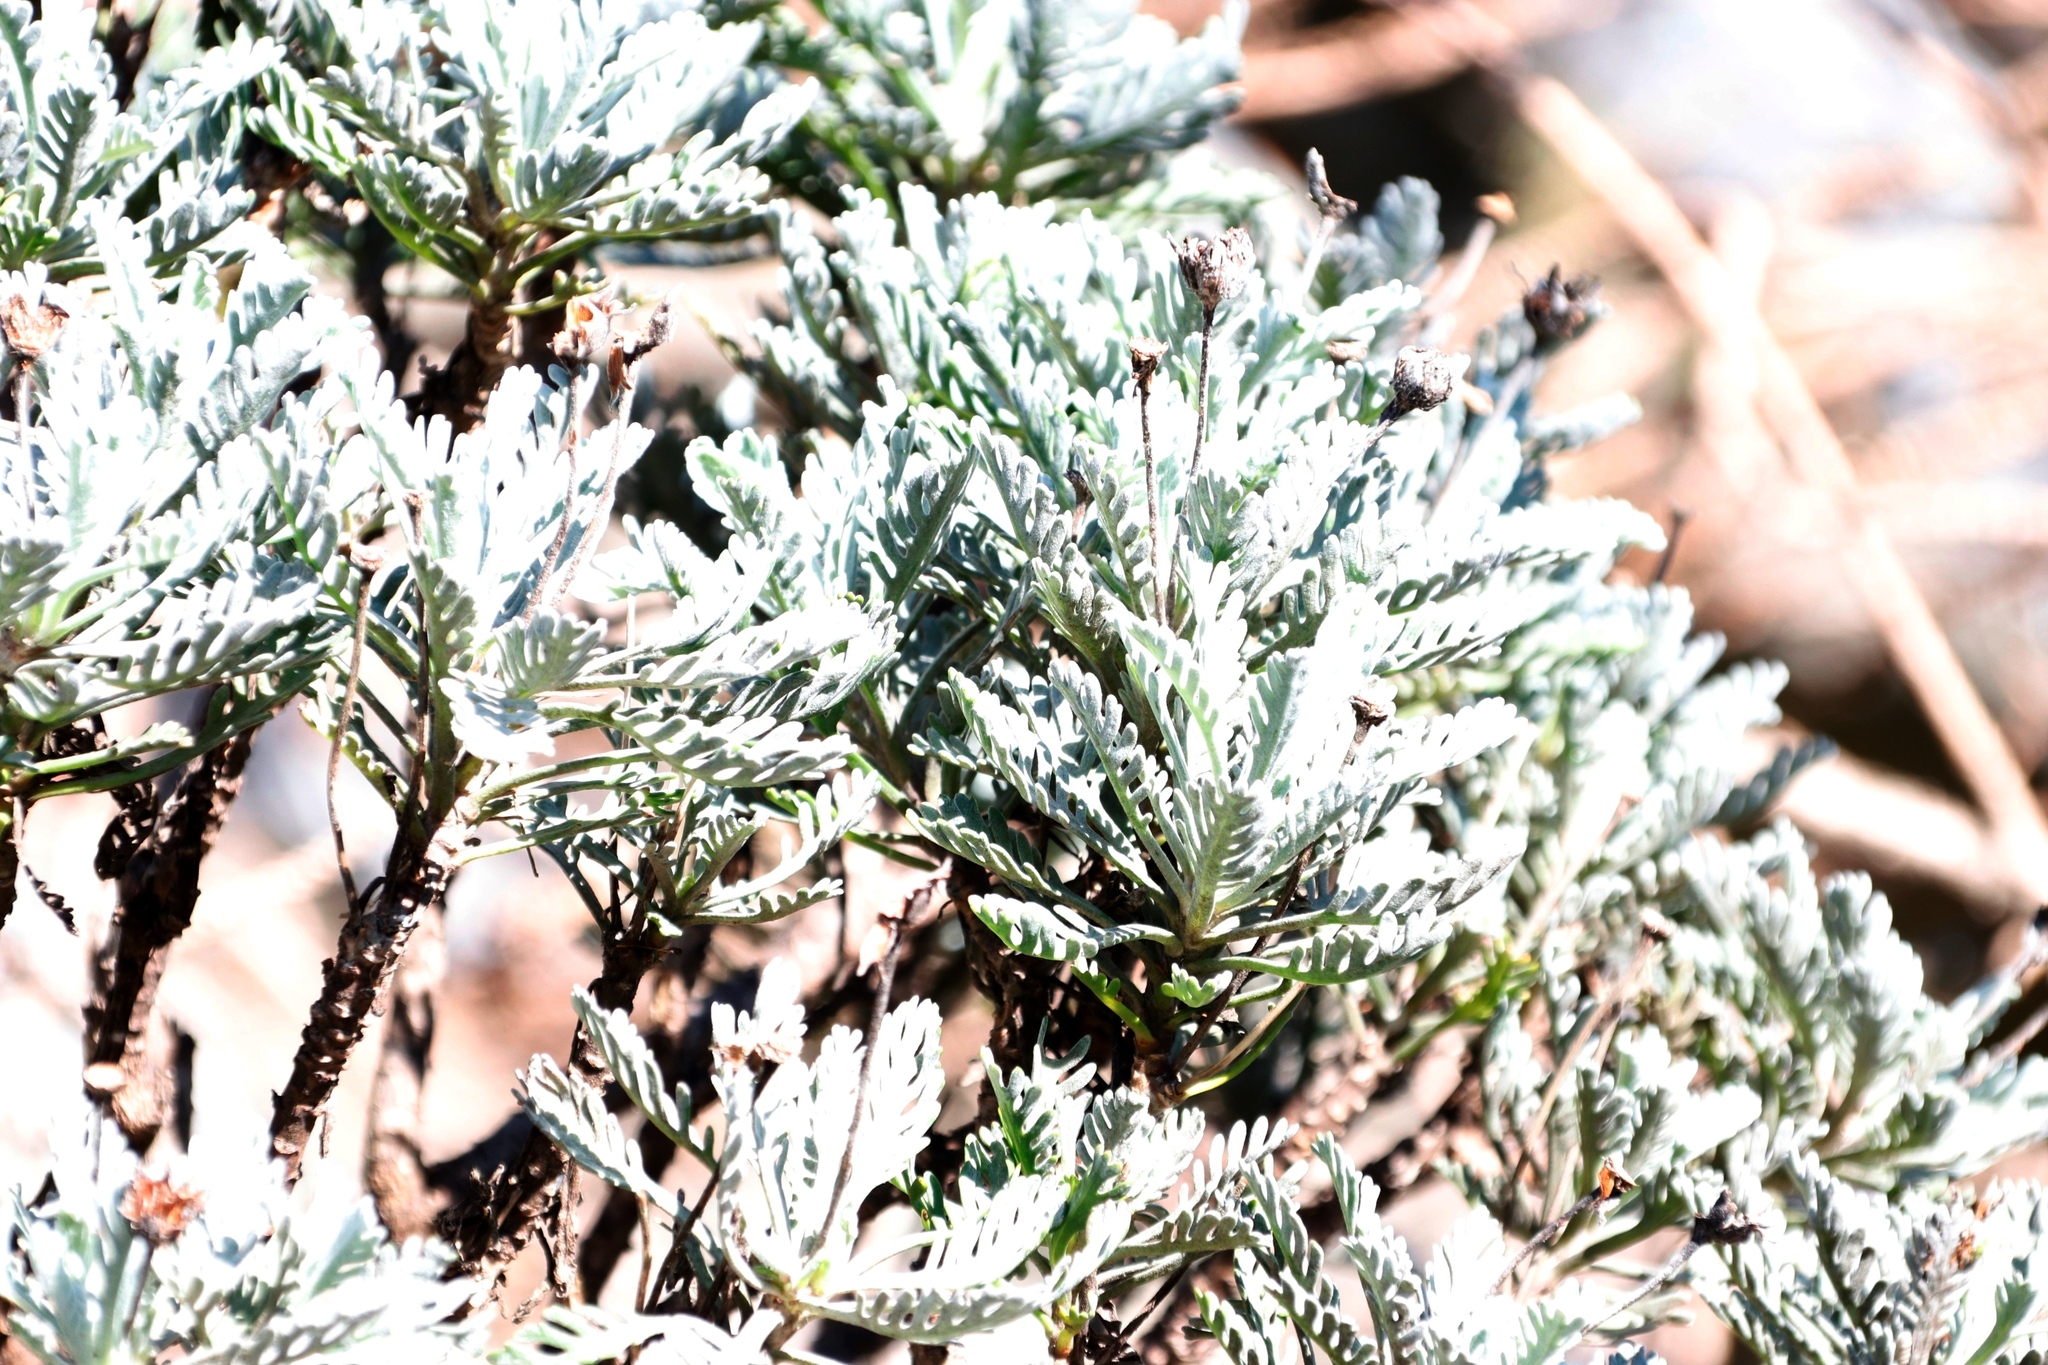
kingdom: Plantae
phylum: Tracheophyta
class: Magnoliopsida
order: Asterales
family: Asteraceae
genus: Euryops
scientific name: Euryops pectinatus
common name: Gray-leaf euryops
